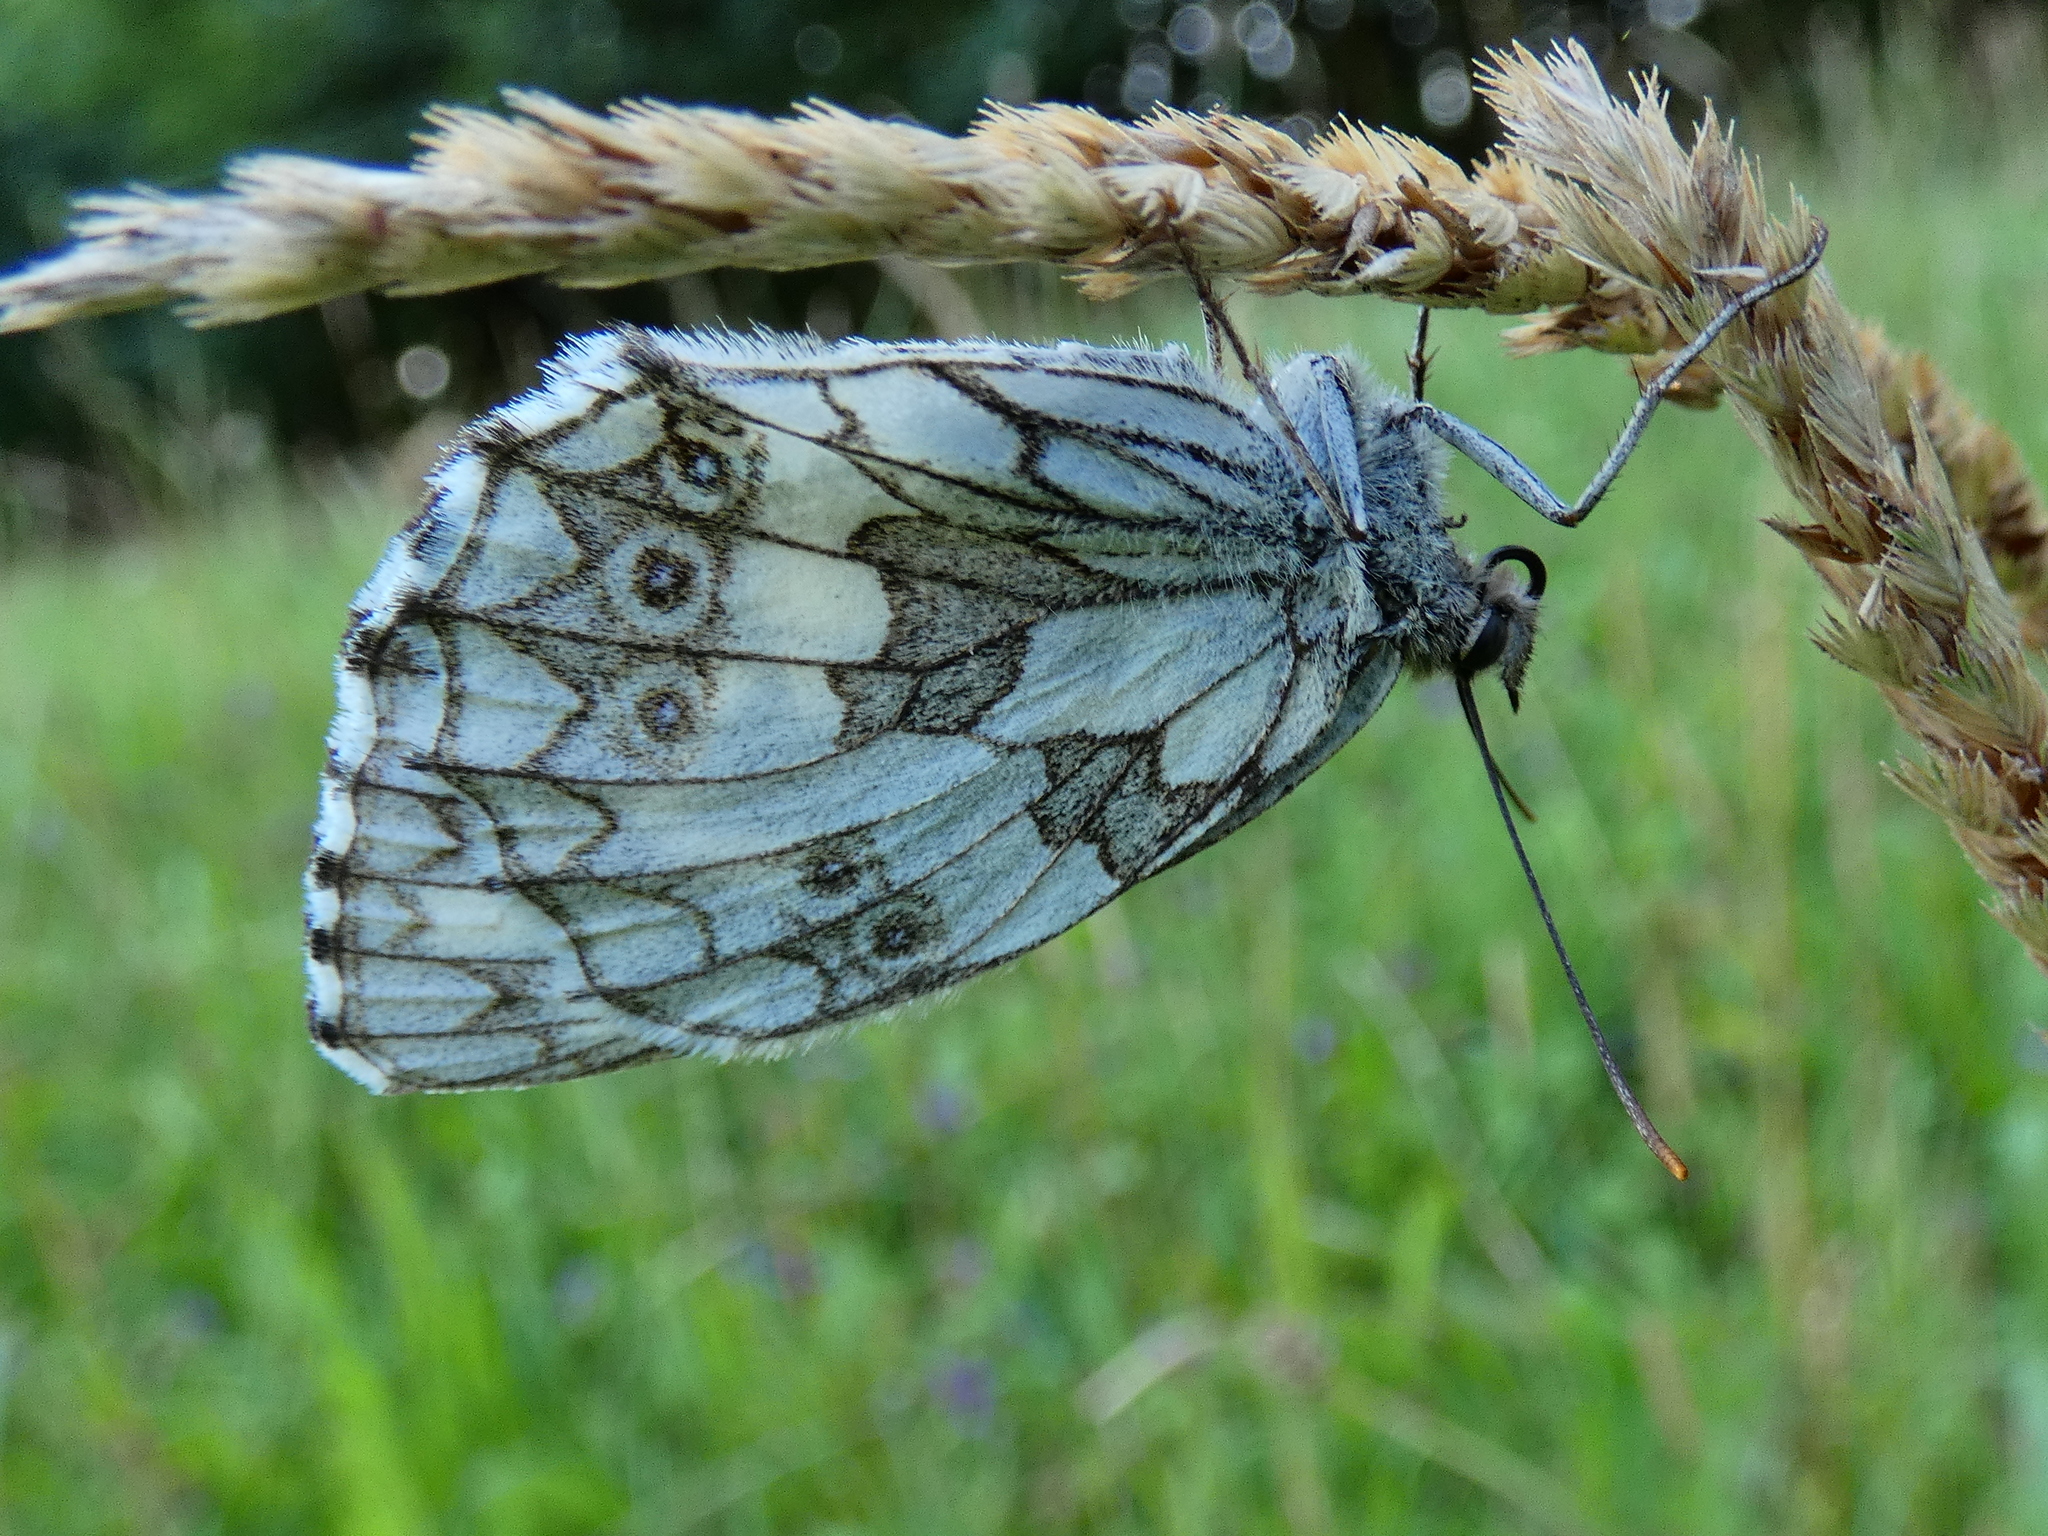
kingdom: Animalia
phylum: Arthropoda
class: Insecta
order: Lepidoptera
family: Nymphalidae
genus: Melanargia
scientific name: Melanargia galathea
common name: Marbled white
